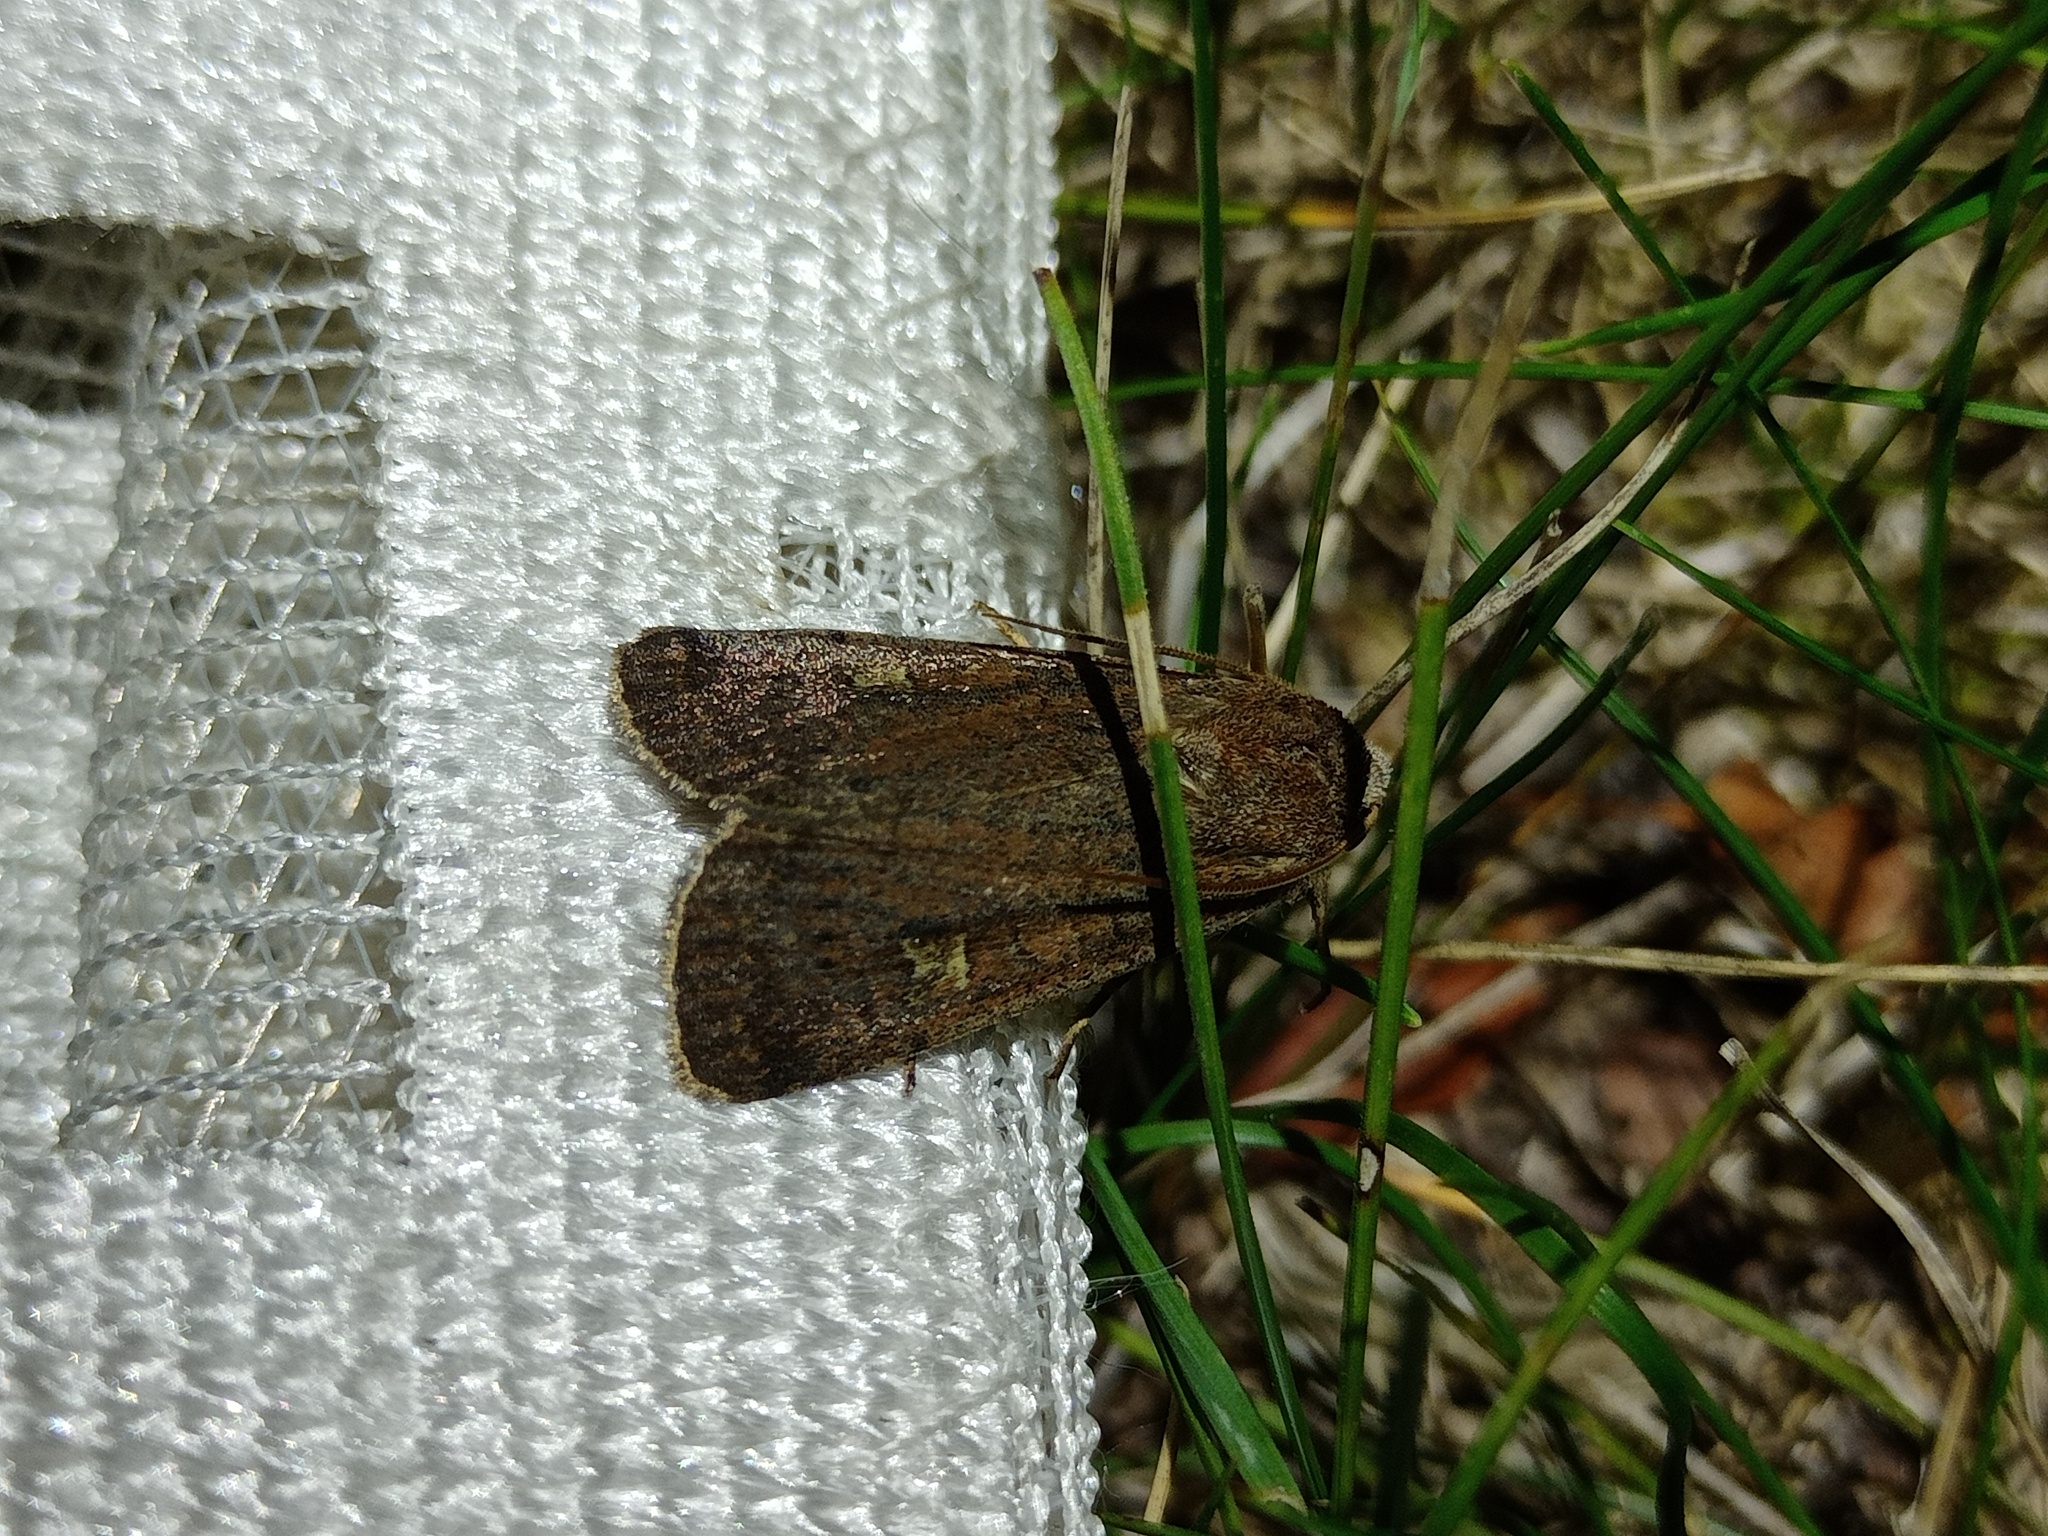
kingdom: Animalia
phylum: Arthropoda
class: Insecta
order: Lepidoptera
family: Noctuidae
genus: Xestia
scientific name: Xestia xanthographa
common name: Square-spot rustic
